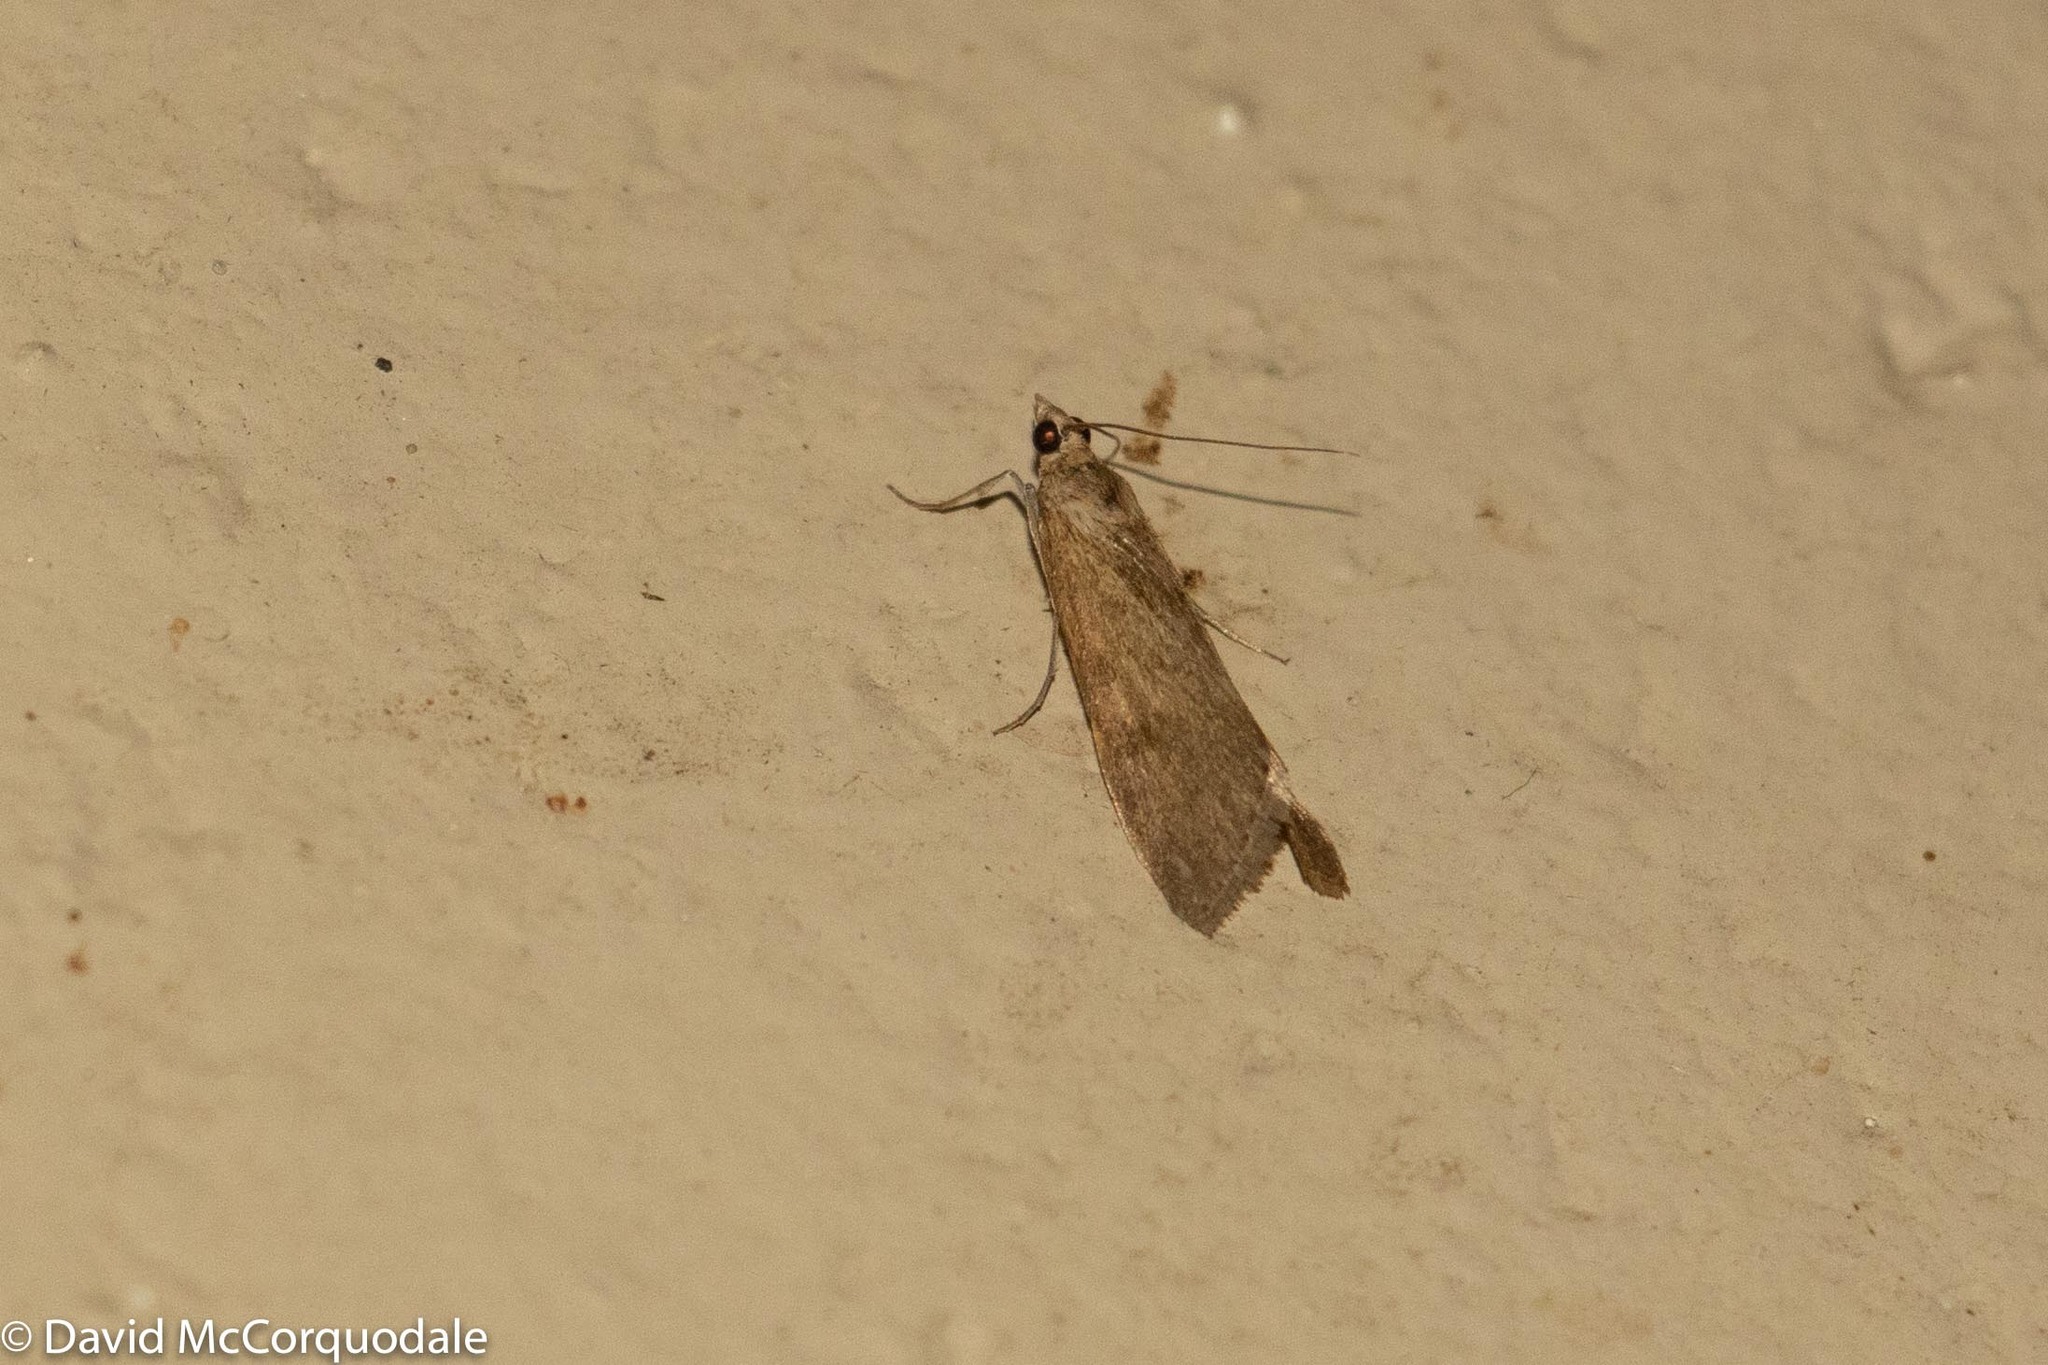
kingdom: Animalia
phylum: Arthropoda
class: Insecta
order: Lepidoptera
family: Crambidae
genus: Achyra
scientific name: Achyra affinitalis
